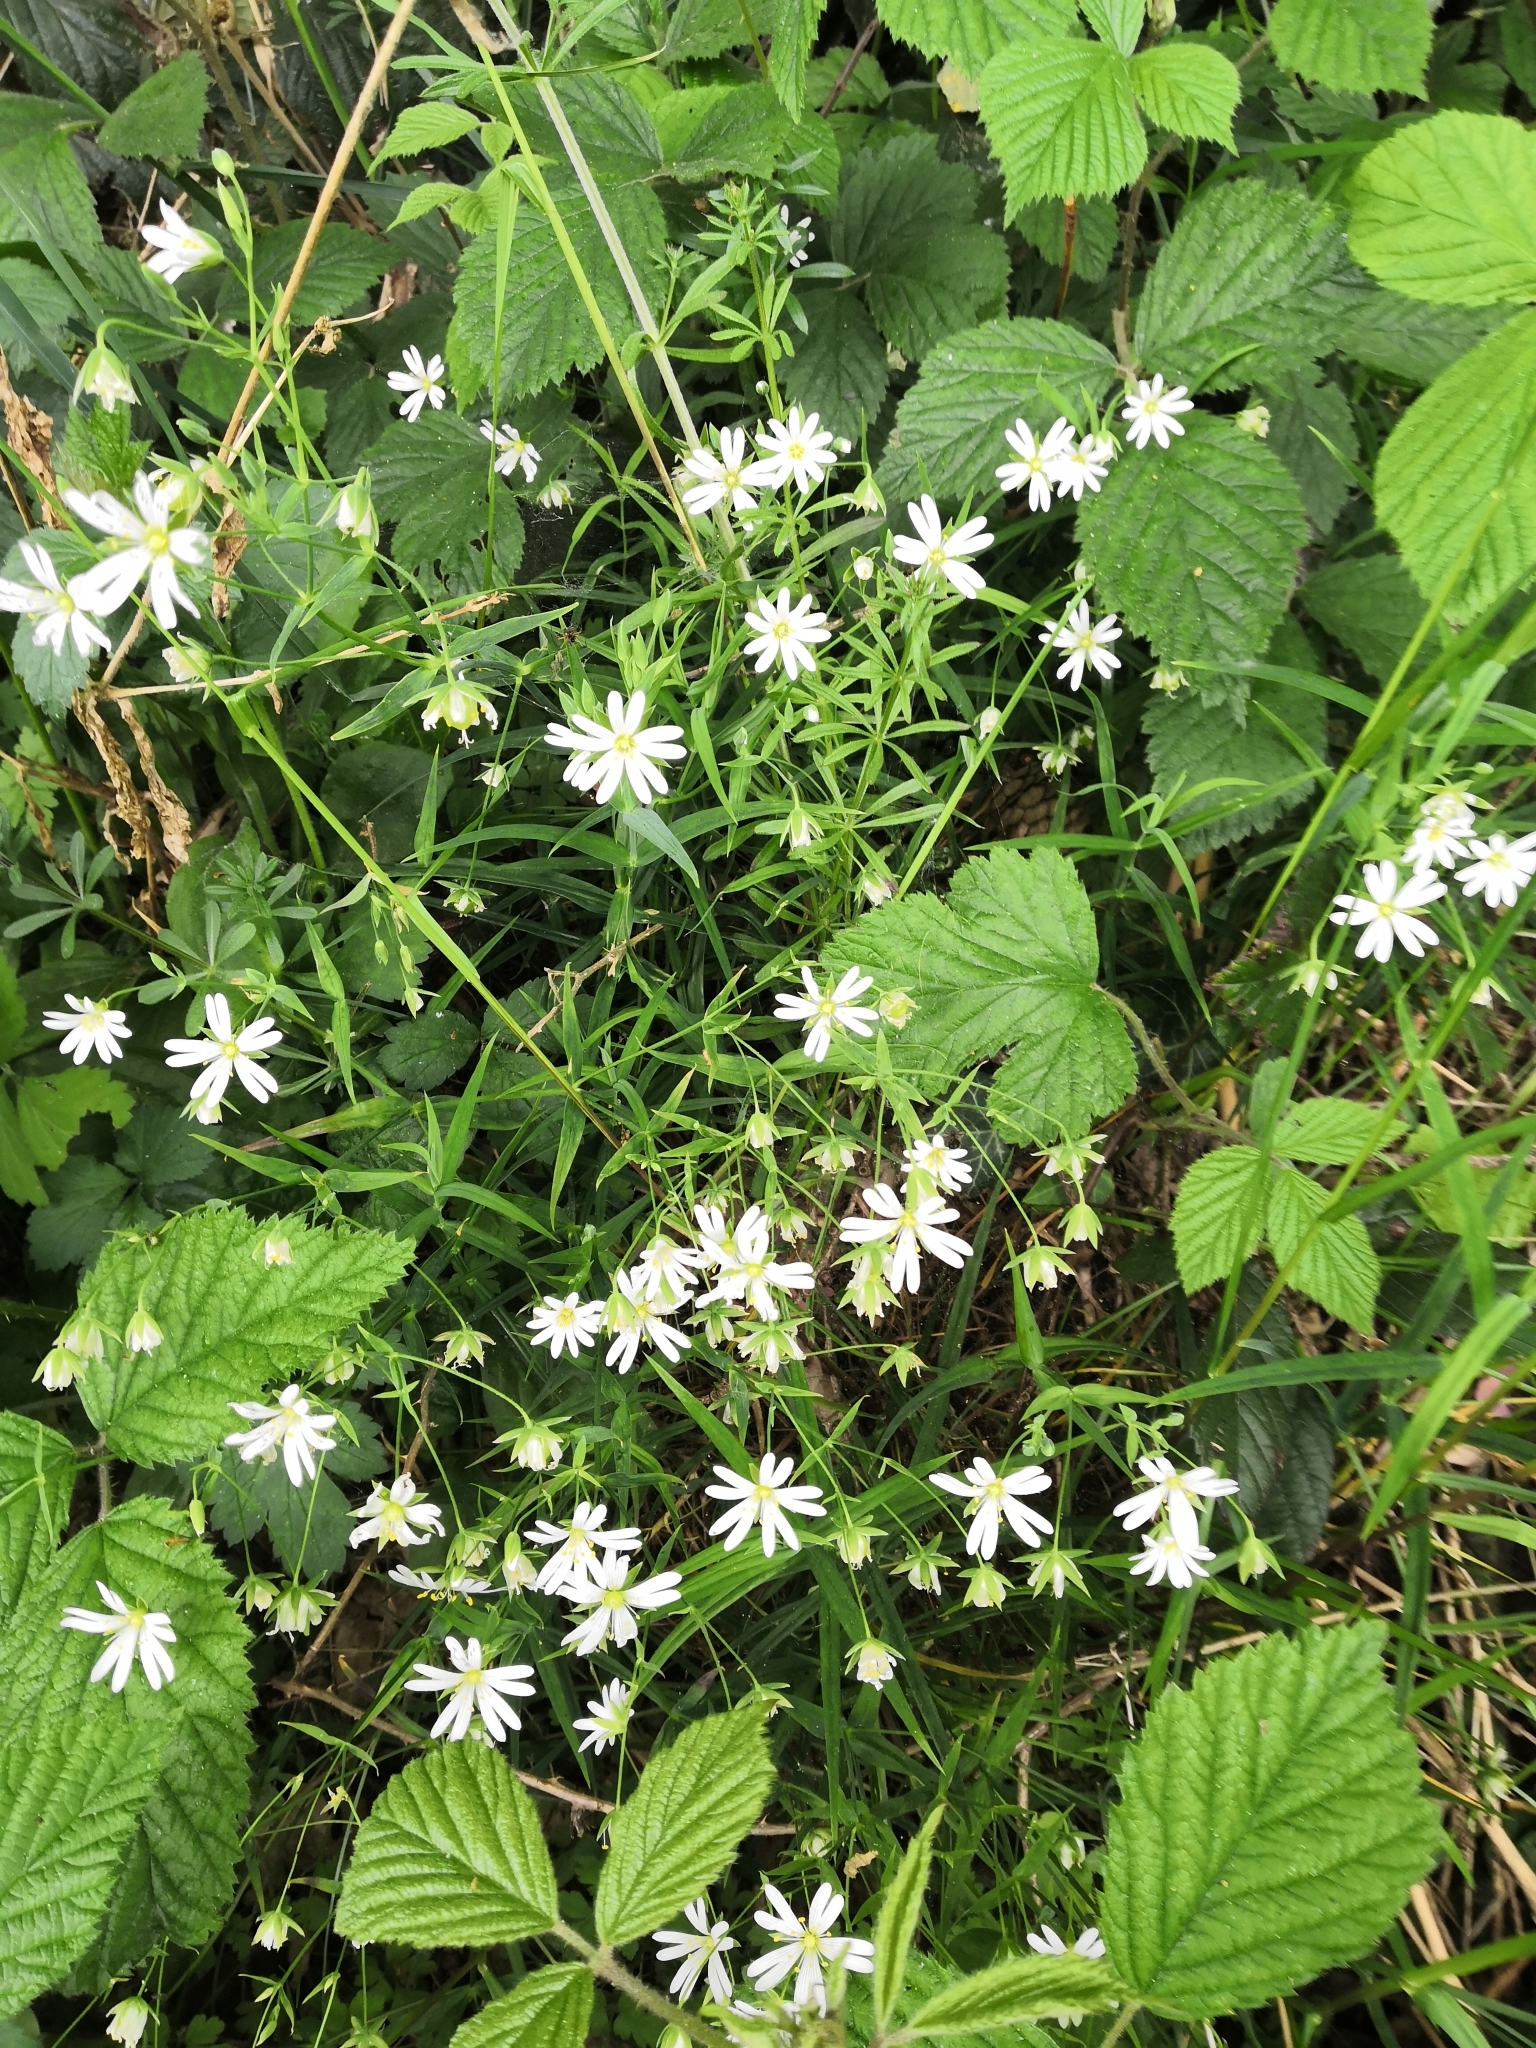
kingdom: Plantae
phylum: Tracheophyta
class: Magnoliopsida
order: Caryophyllales
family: Caryophyllaceae
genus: Rabelera
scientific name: Rabelera holostea
